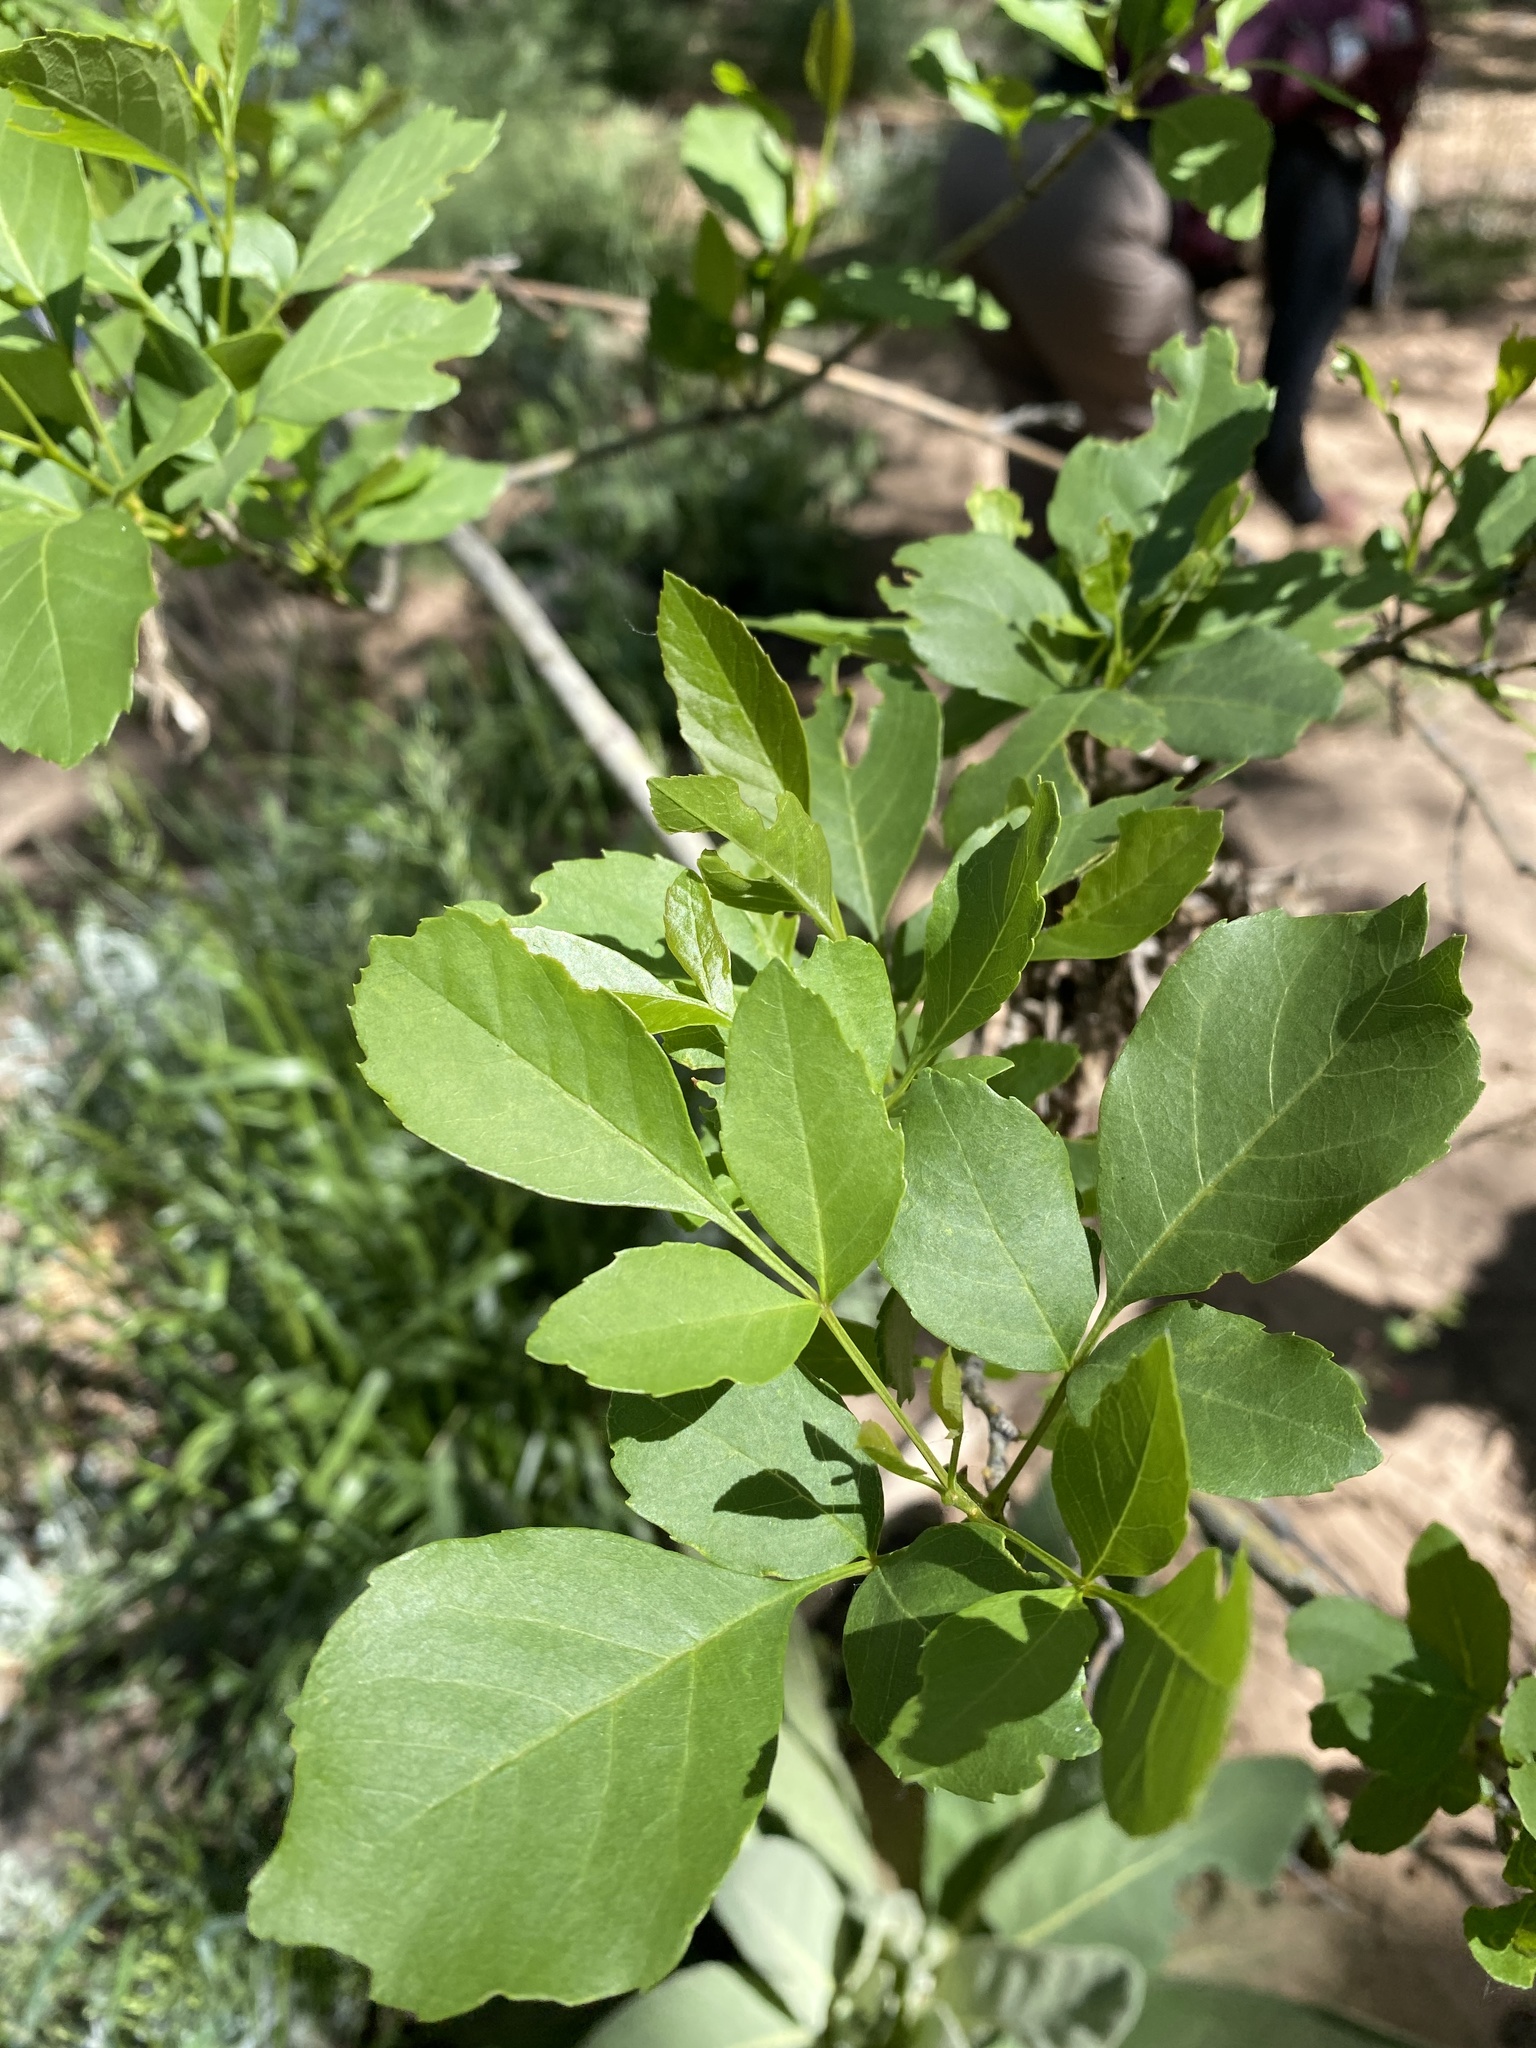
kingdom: Plantae
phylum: Tracheophyta
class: Magnoliopsida
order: Lamiales
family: Oleaceae
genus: Fraxinus
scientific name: Fraxinus velutina
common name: Arizon ash
